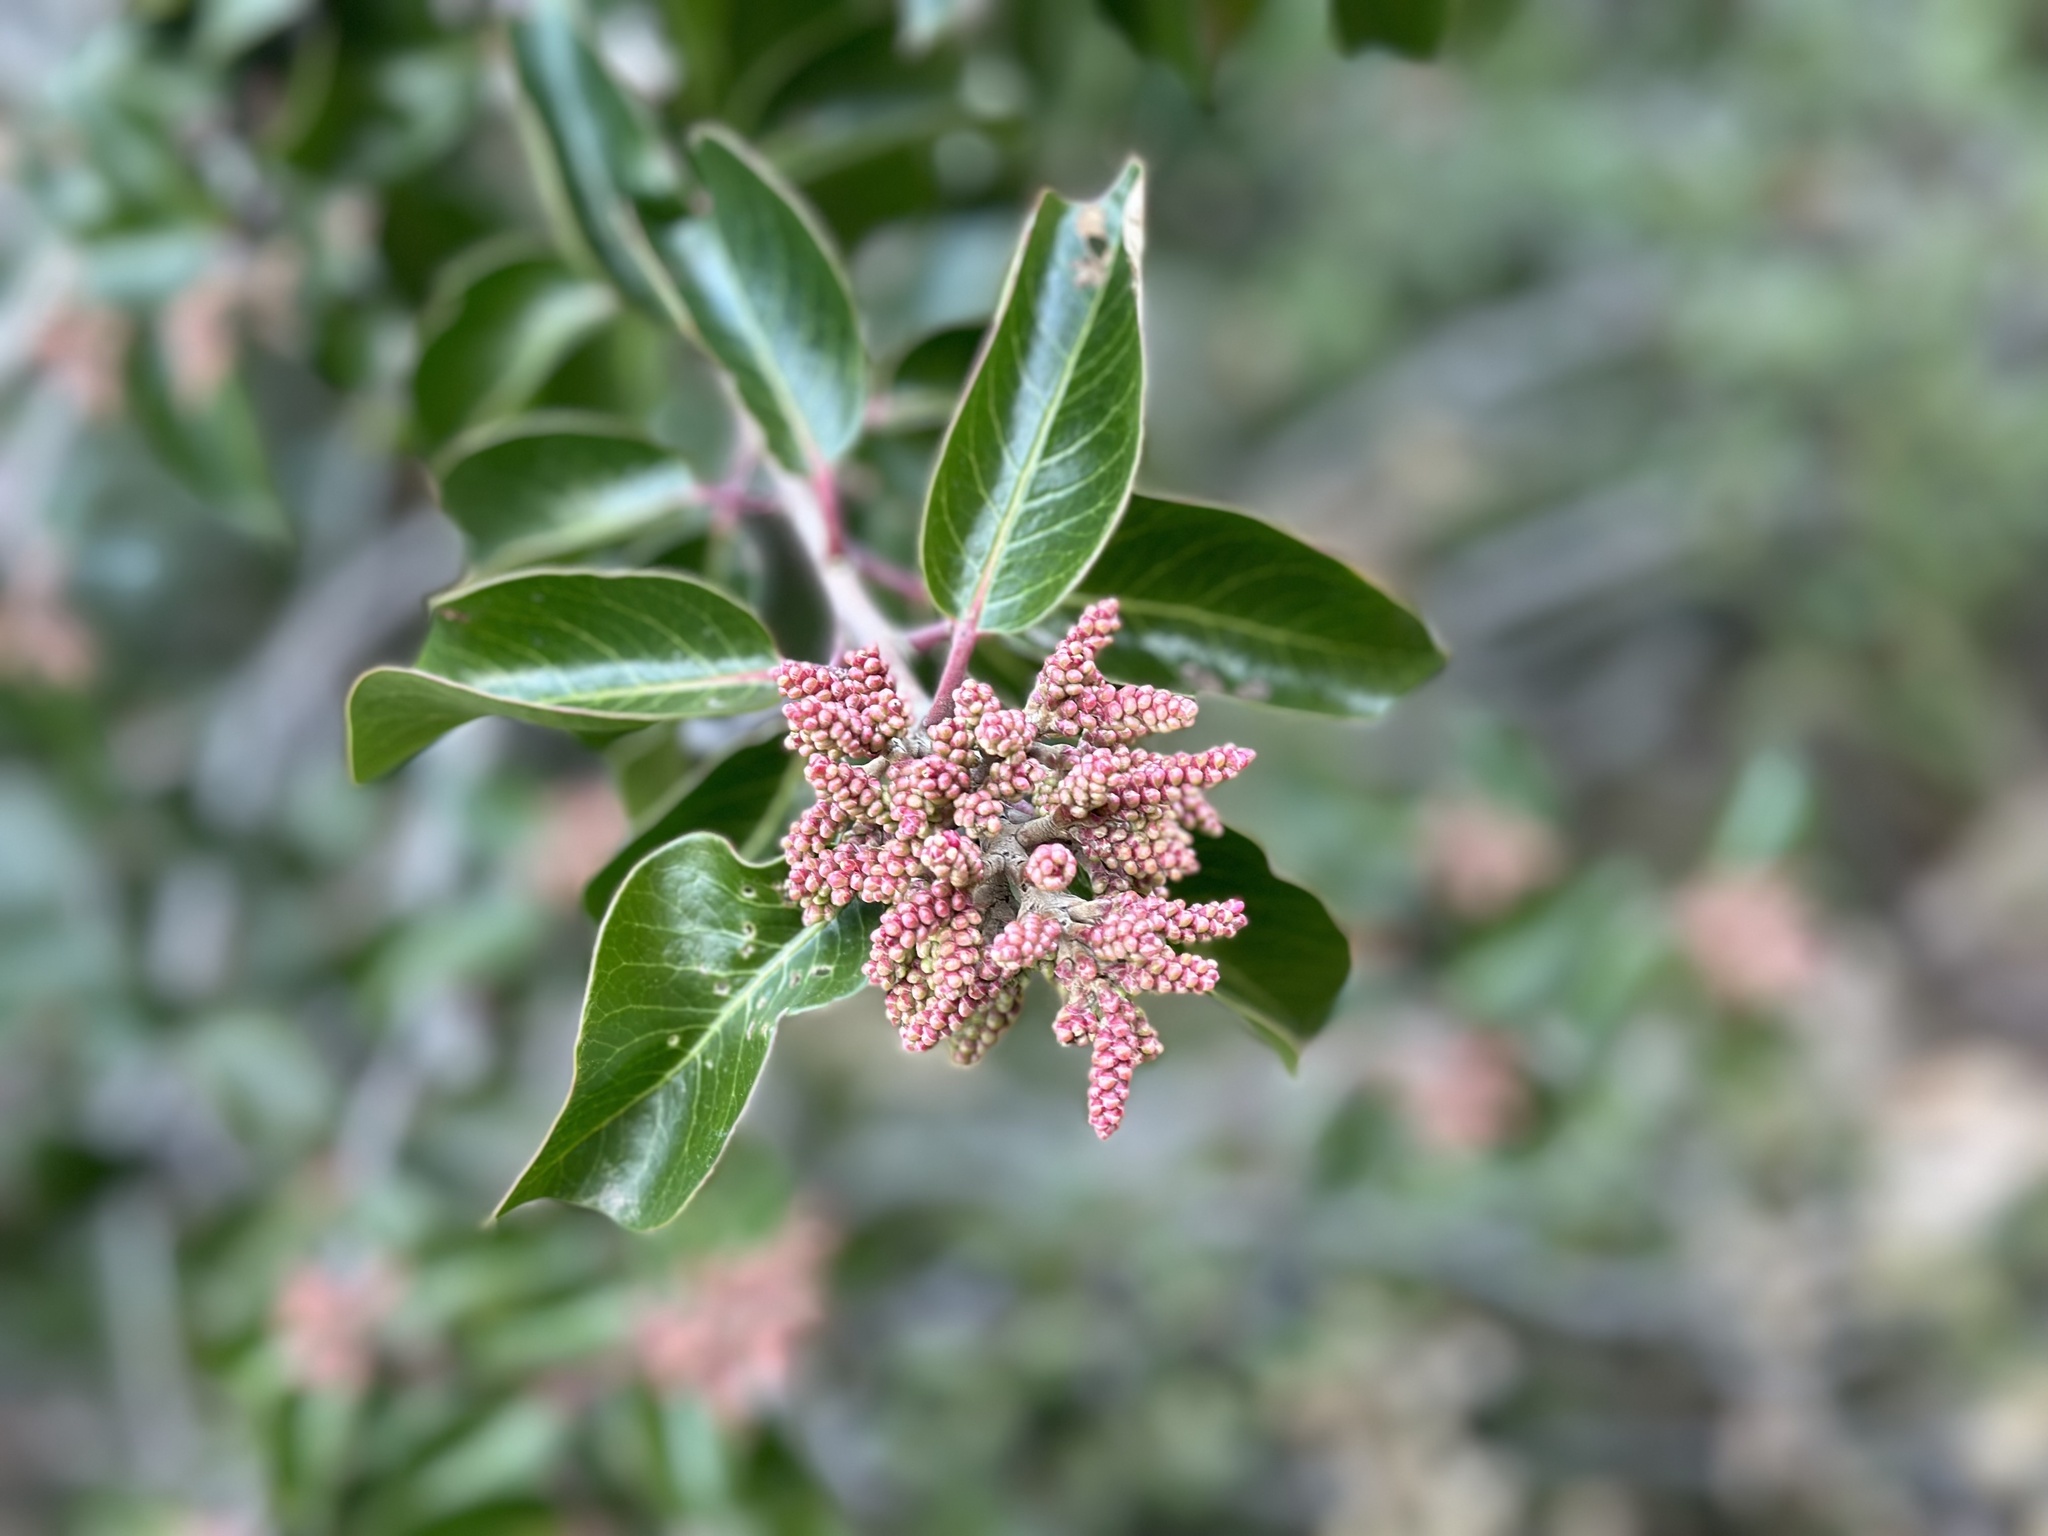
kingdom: Plantae
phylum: Tracheophyta
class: Magnoliopsida
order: Sapindales
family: Anacardiaceae
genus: Rhus
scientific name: Rhus ovata
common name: Sugar sumac
